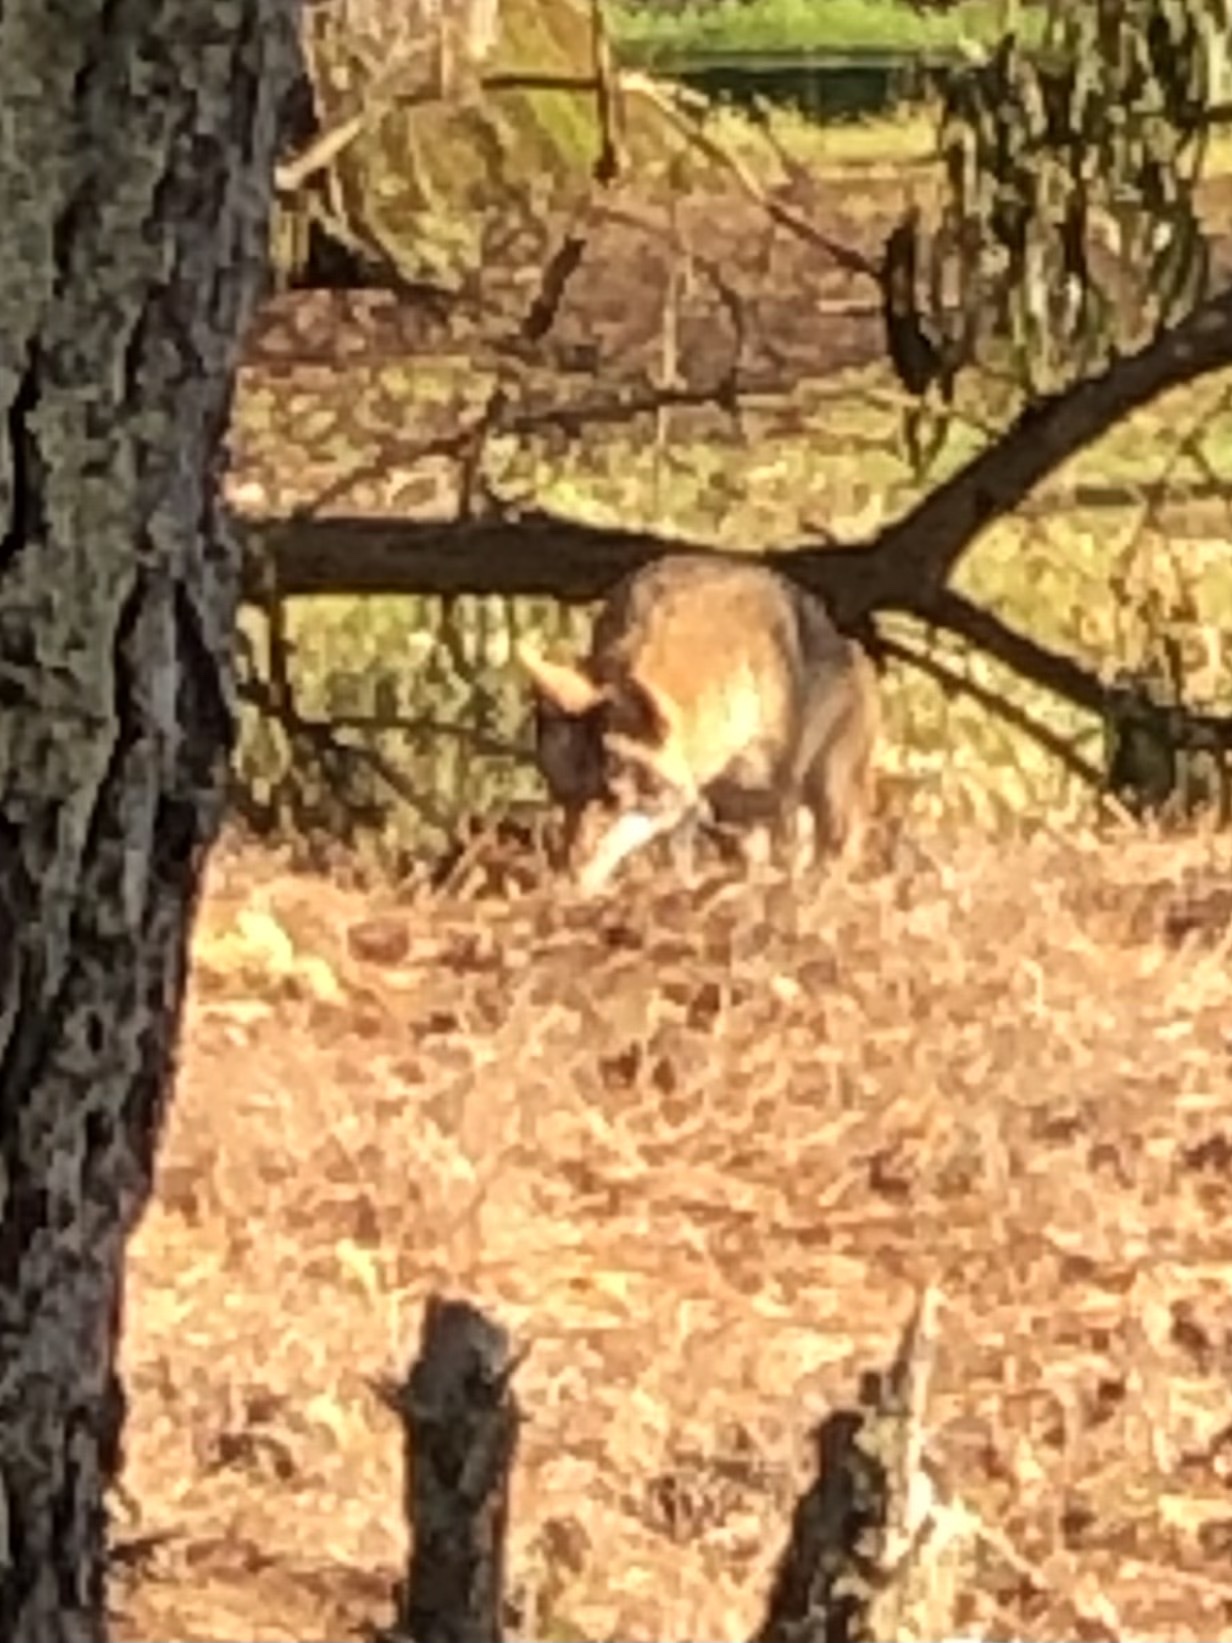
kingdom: Animalia
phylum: Chordata
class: Mammalia
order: Carnivora
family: Canidae
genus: Canis
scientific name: Canis latrans
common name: Coyote
